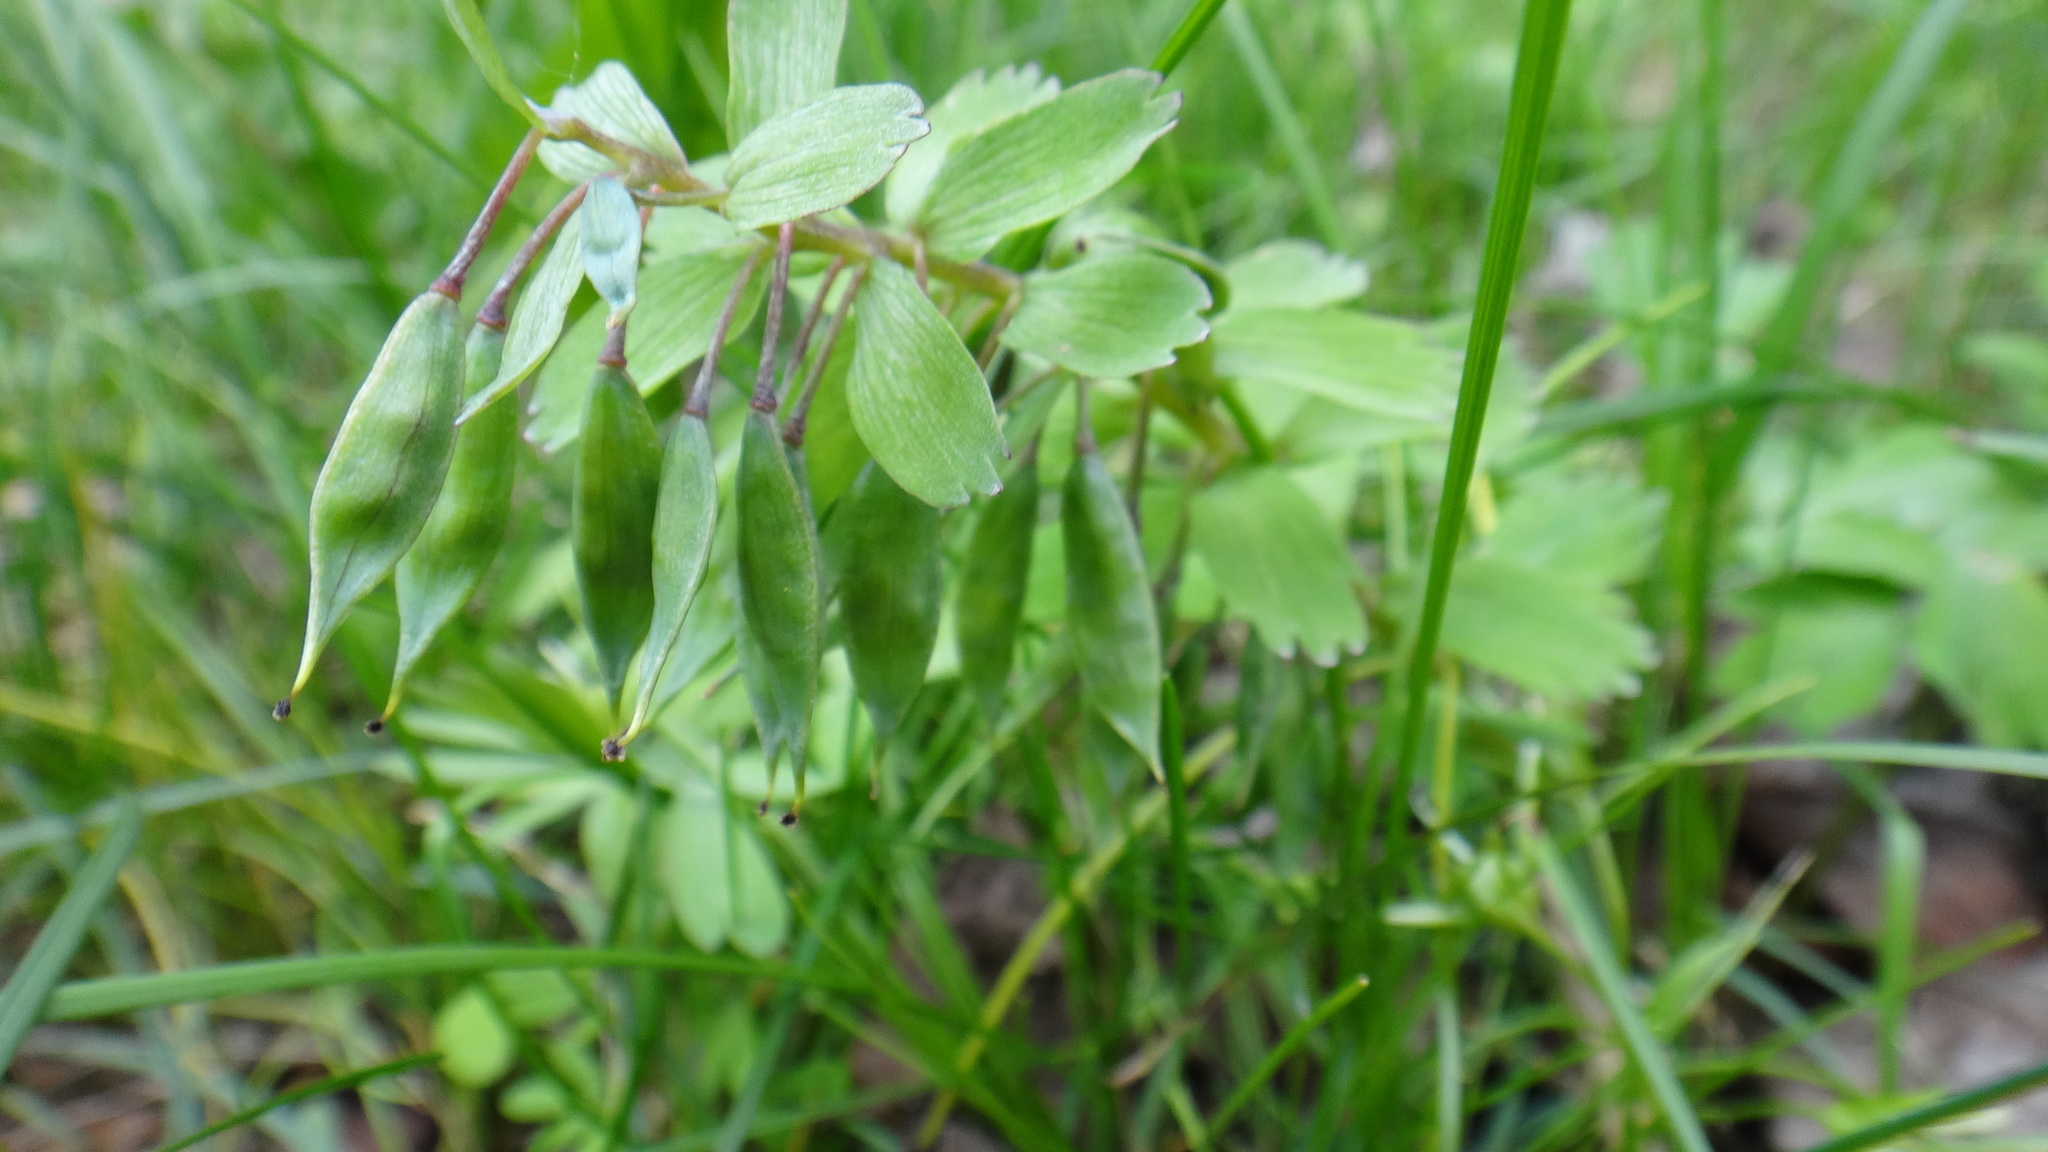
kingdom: Plantae
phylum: Tracheophyta
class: Magnoliopsida
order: Ranunculales
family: Papaveraceae
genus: Corydalis
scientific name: Corydalis solida
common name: Bird-in-a-bush
